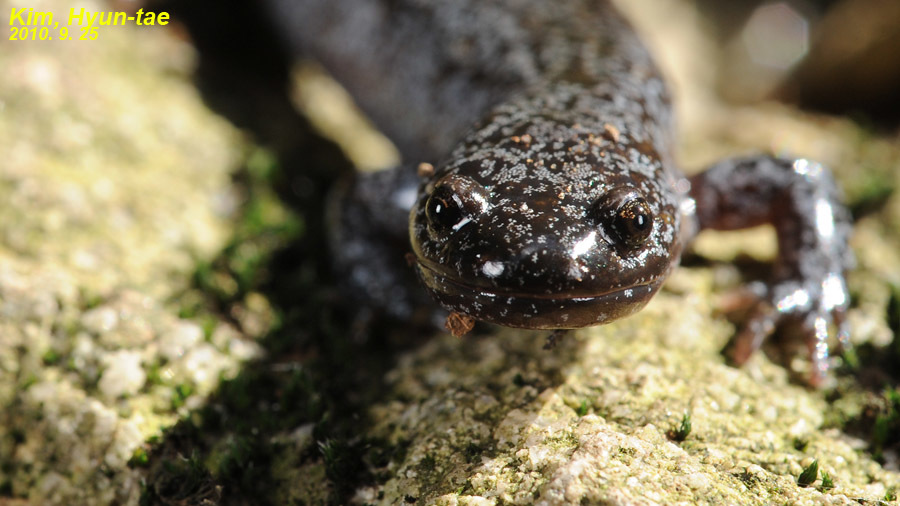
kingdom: Animalia
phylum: Chordata
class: Amphibia
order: Caudata
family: Hynobiidae
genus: Hynobius
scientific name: Hynobius leechii
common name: Gensan salamander
